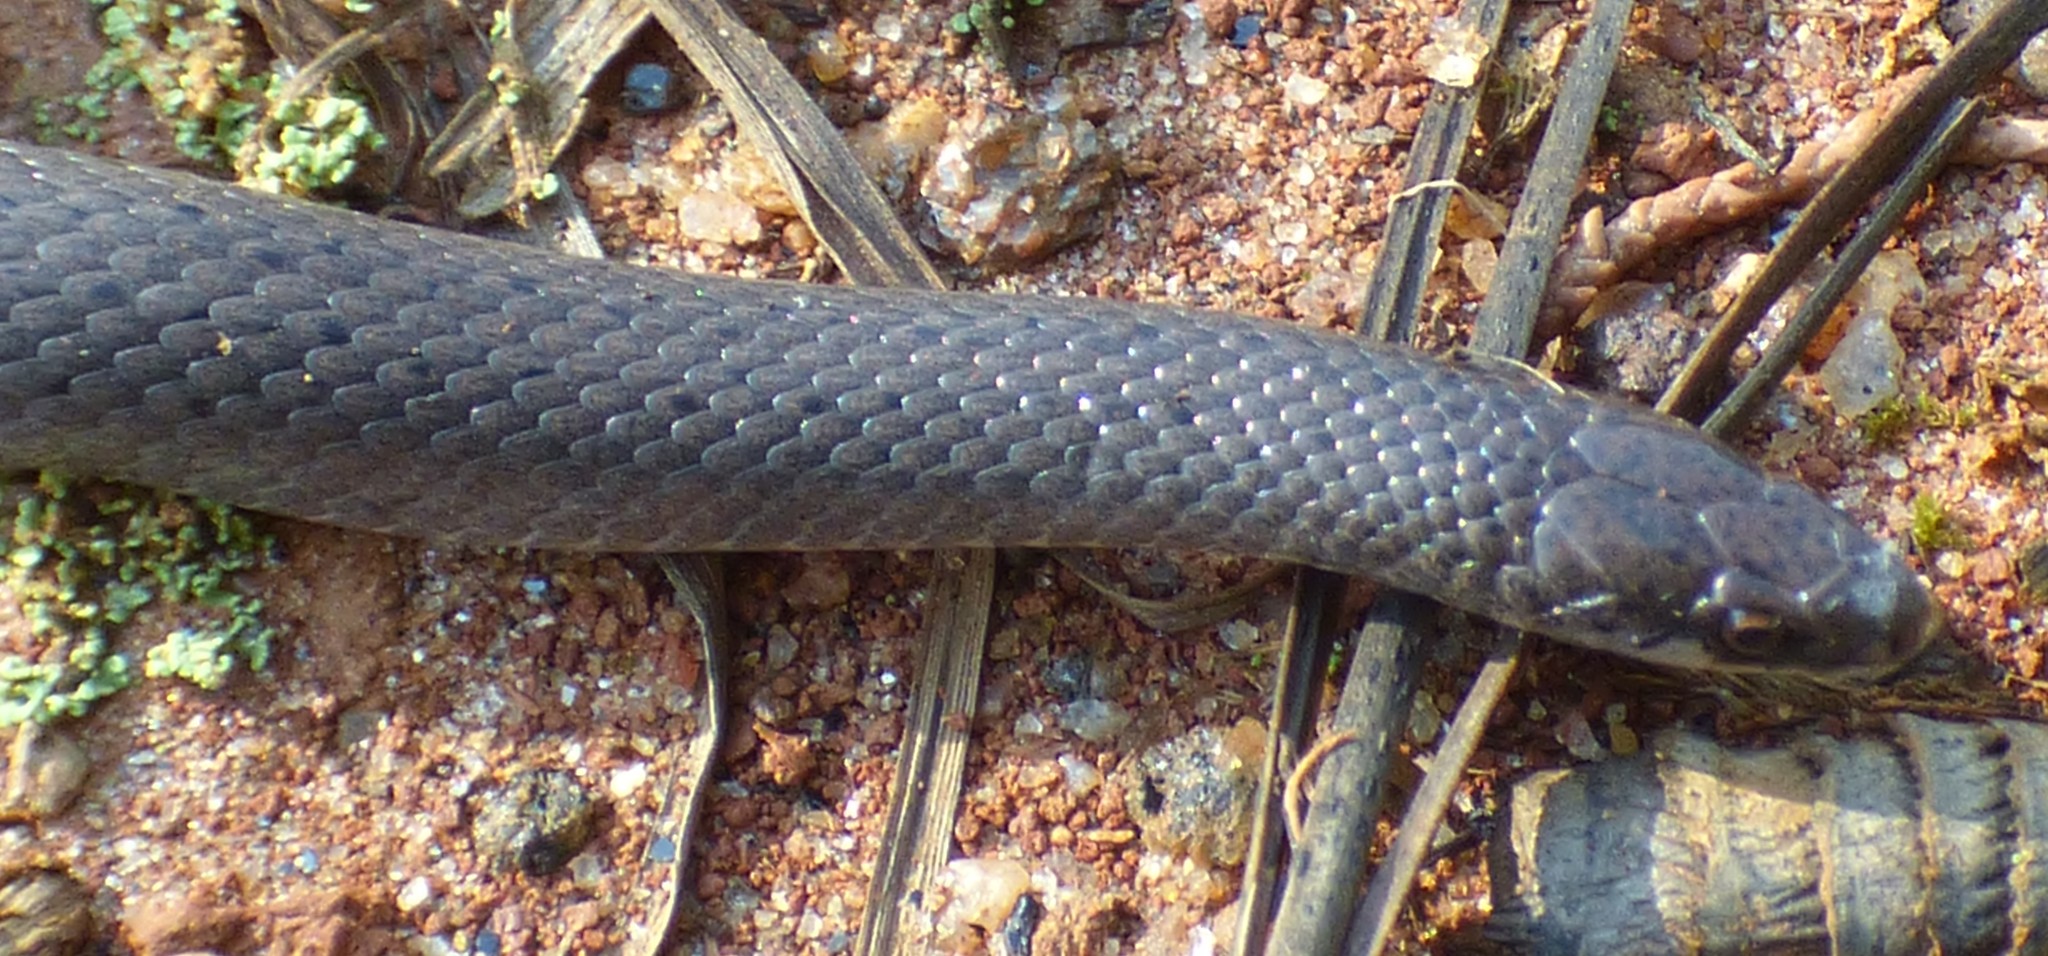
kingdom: Animalia
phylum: Chordata
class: Squamata
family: Colubridae
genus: Virginia
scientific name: Virginia valeriae
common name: Smooth earth snake
